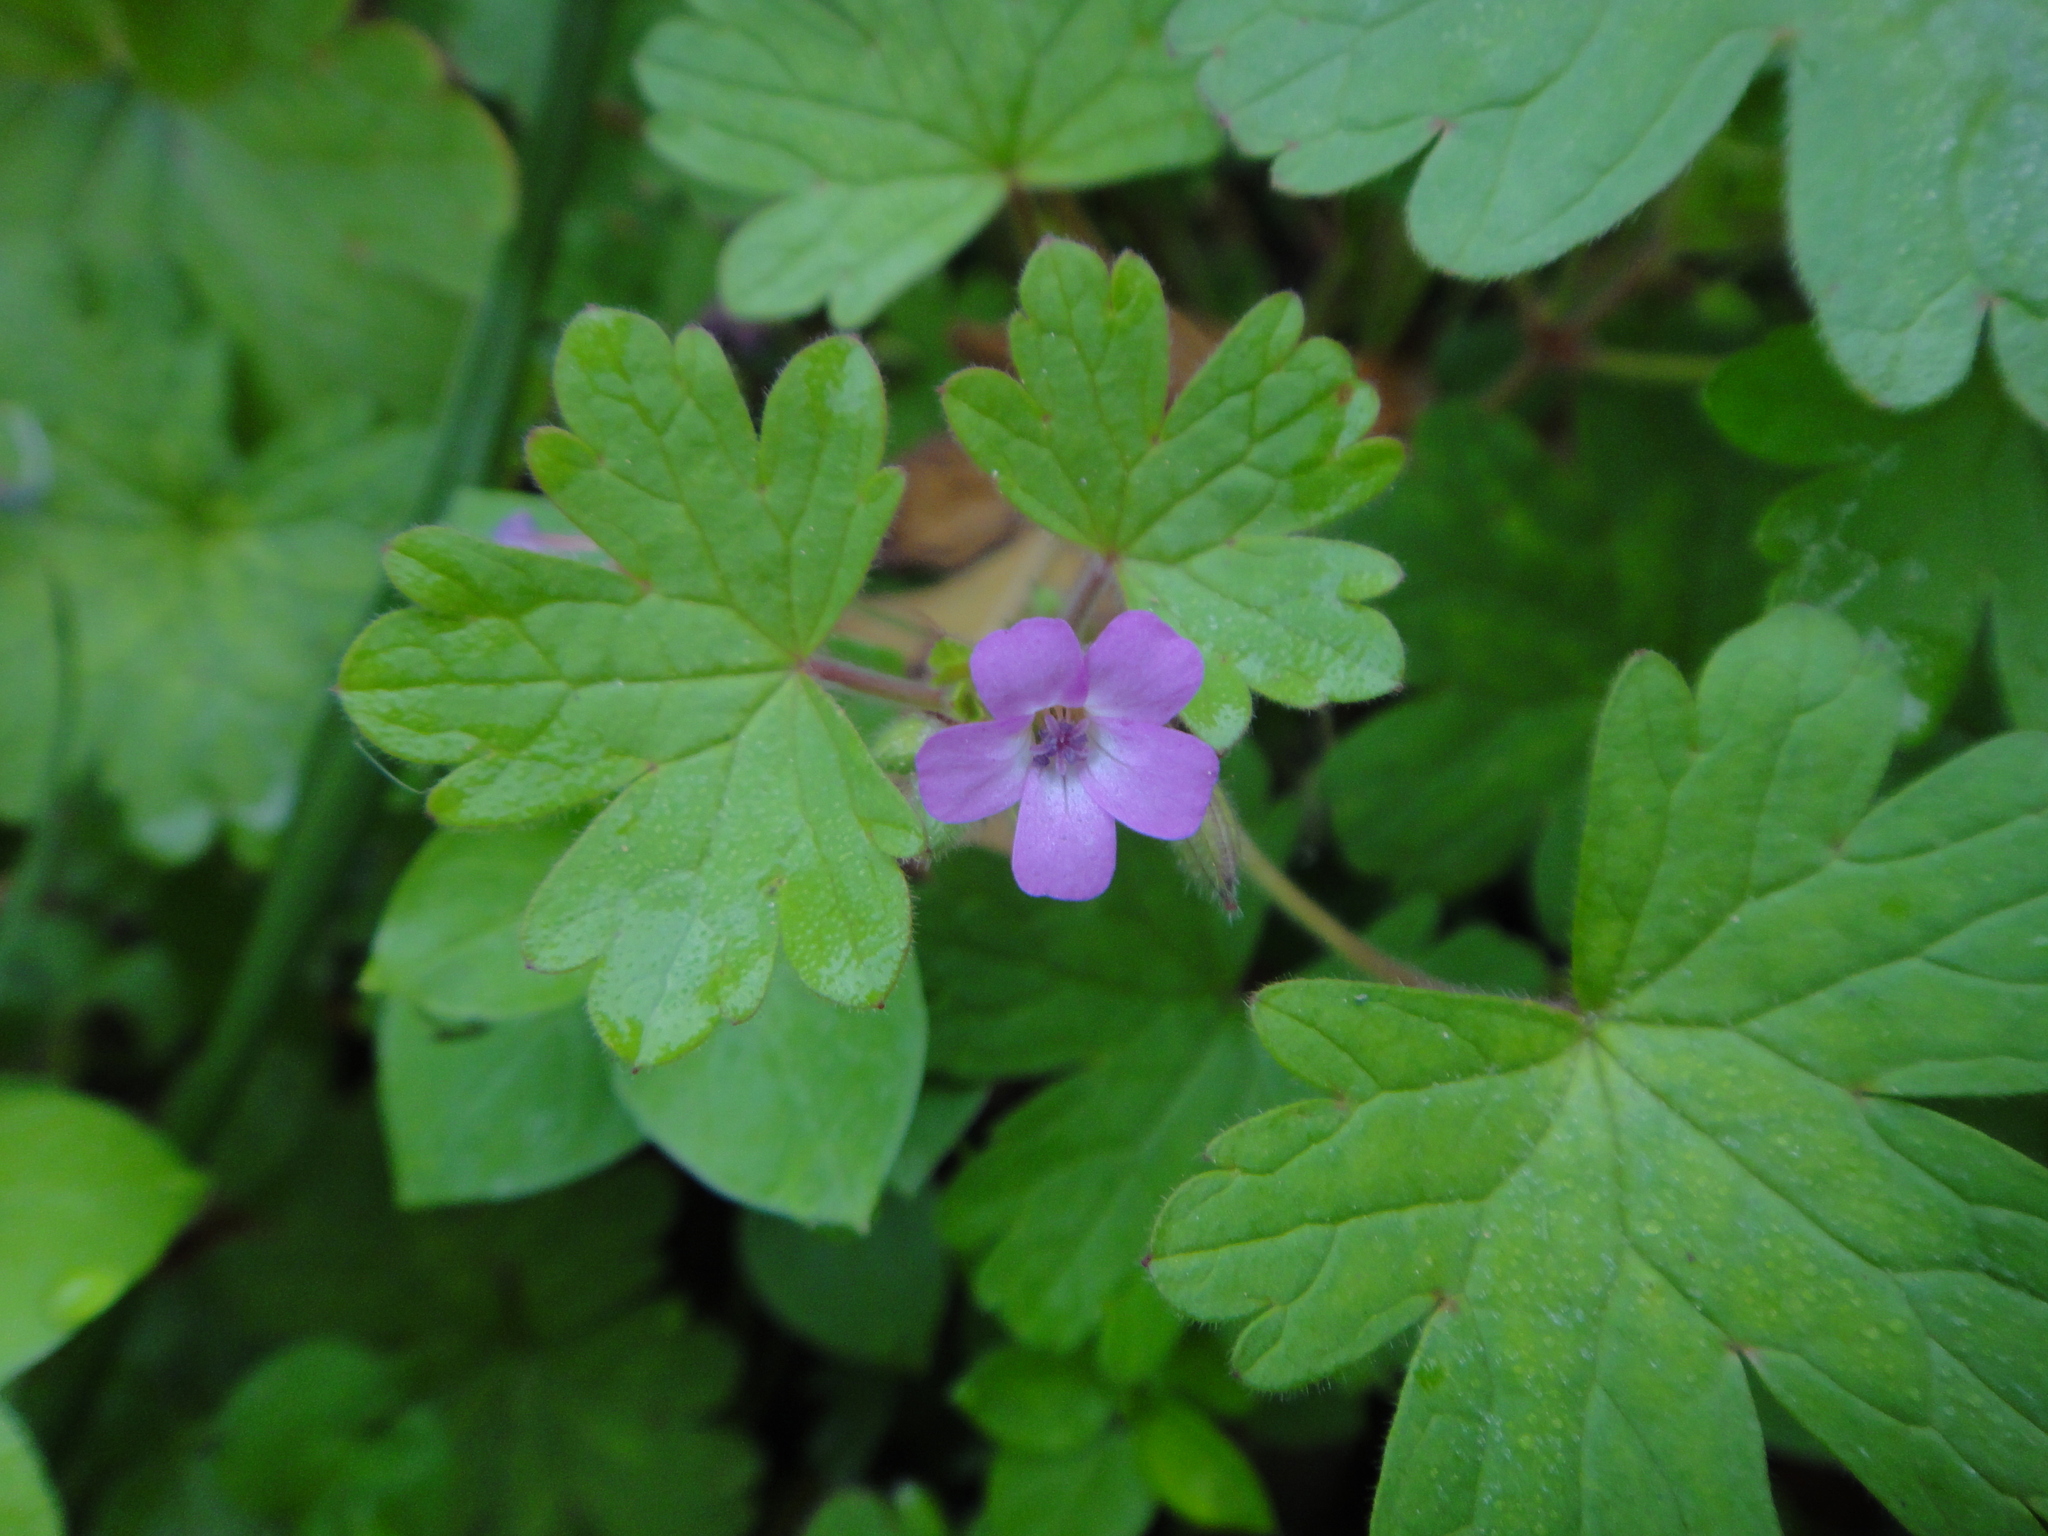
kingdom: Plantae
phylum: Tracheophyta
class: Magnoliopsida
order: Geraniales
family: Geraniaceae
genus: Geranium
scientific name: Geranium rotundifolium
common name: Round-leaved crane's-bill
